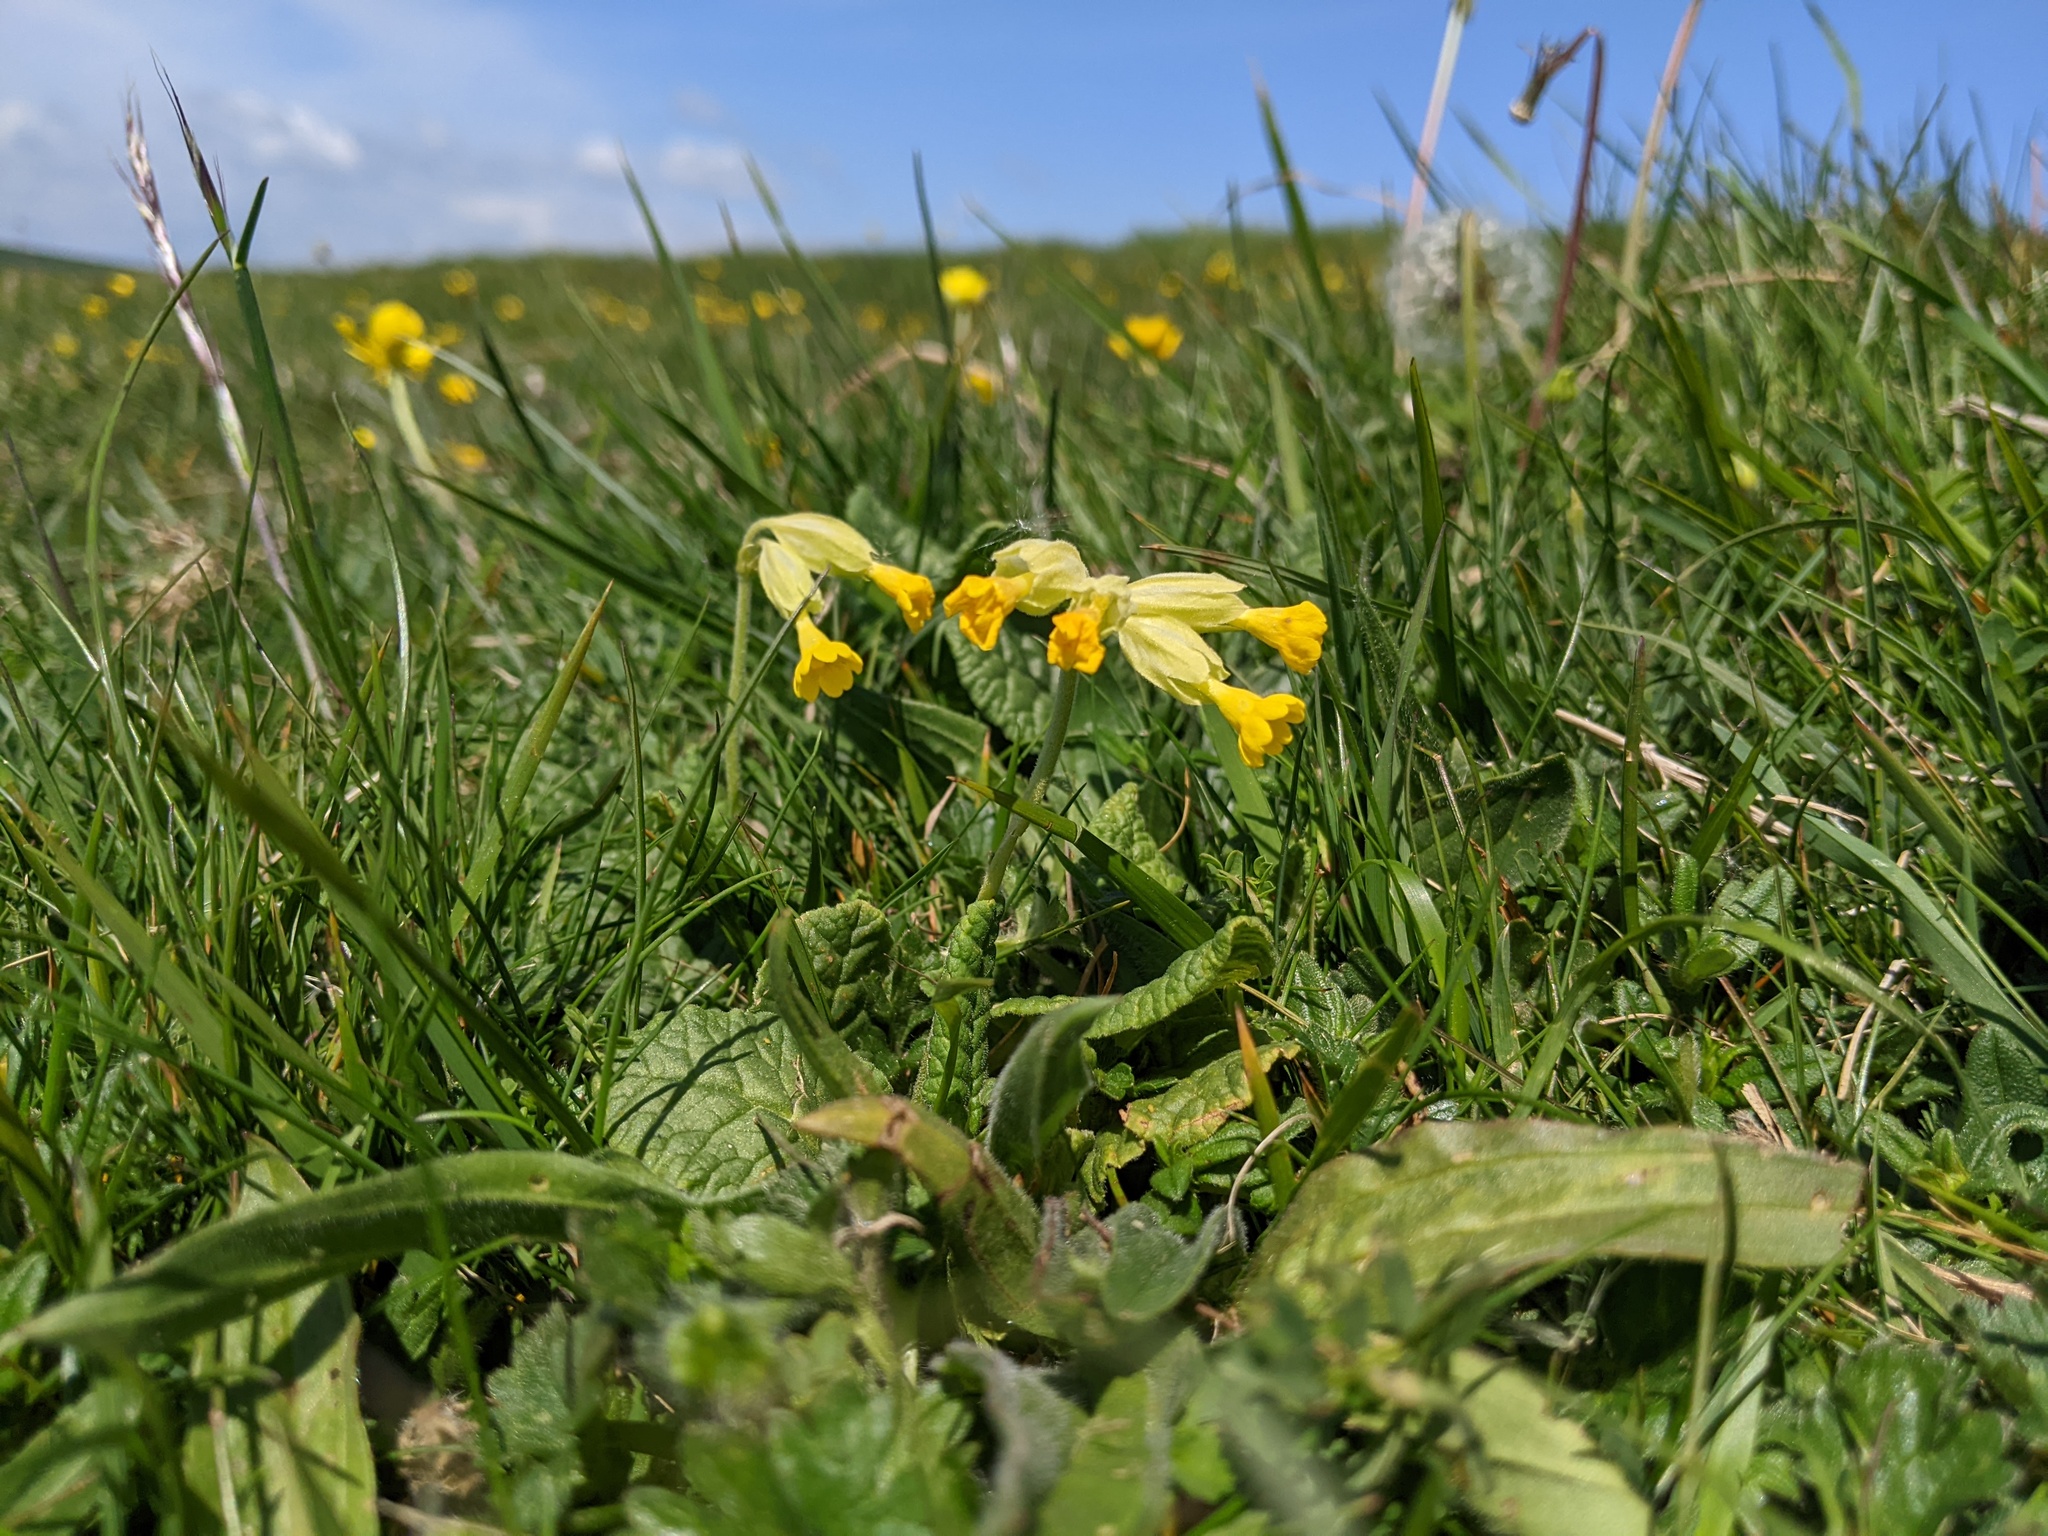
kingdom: Plantae
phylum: Tracheophyta
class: Magnoliopsida
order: Ericales
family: Primulaceae
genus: Primula
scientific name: Primula veris
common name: Cowslip
